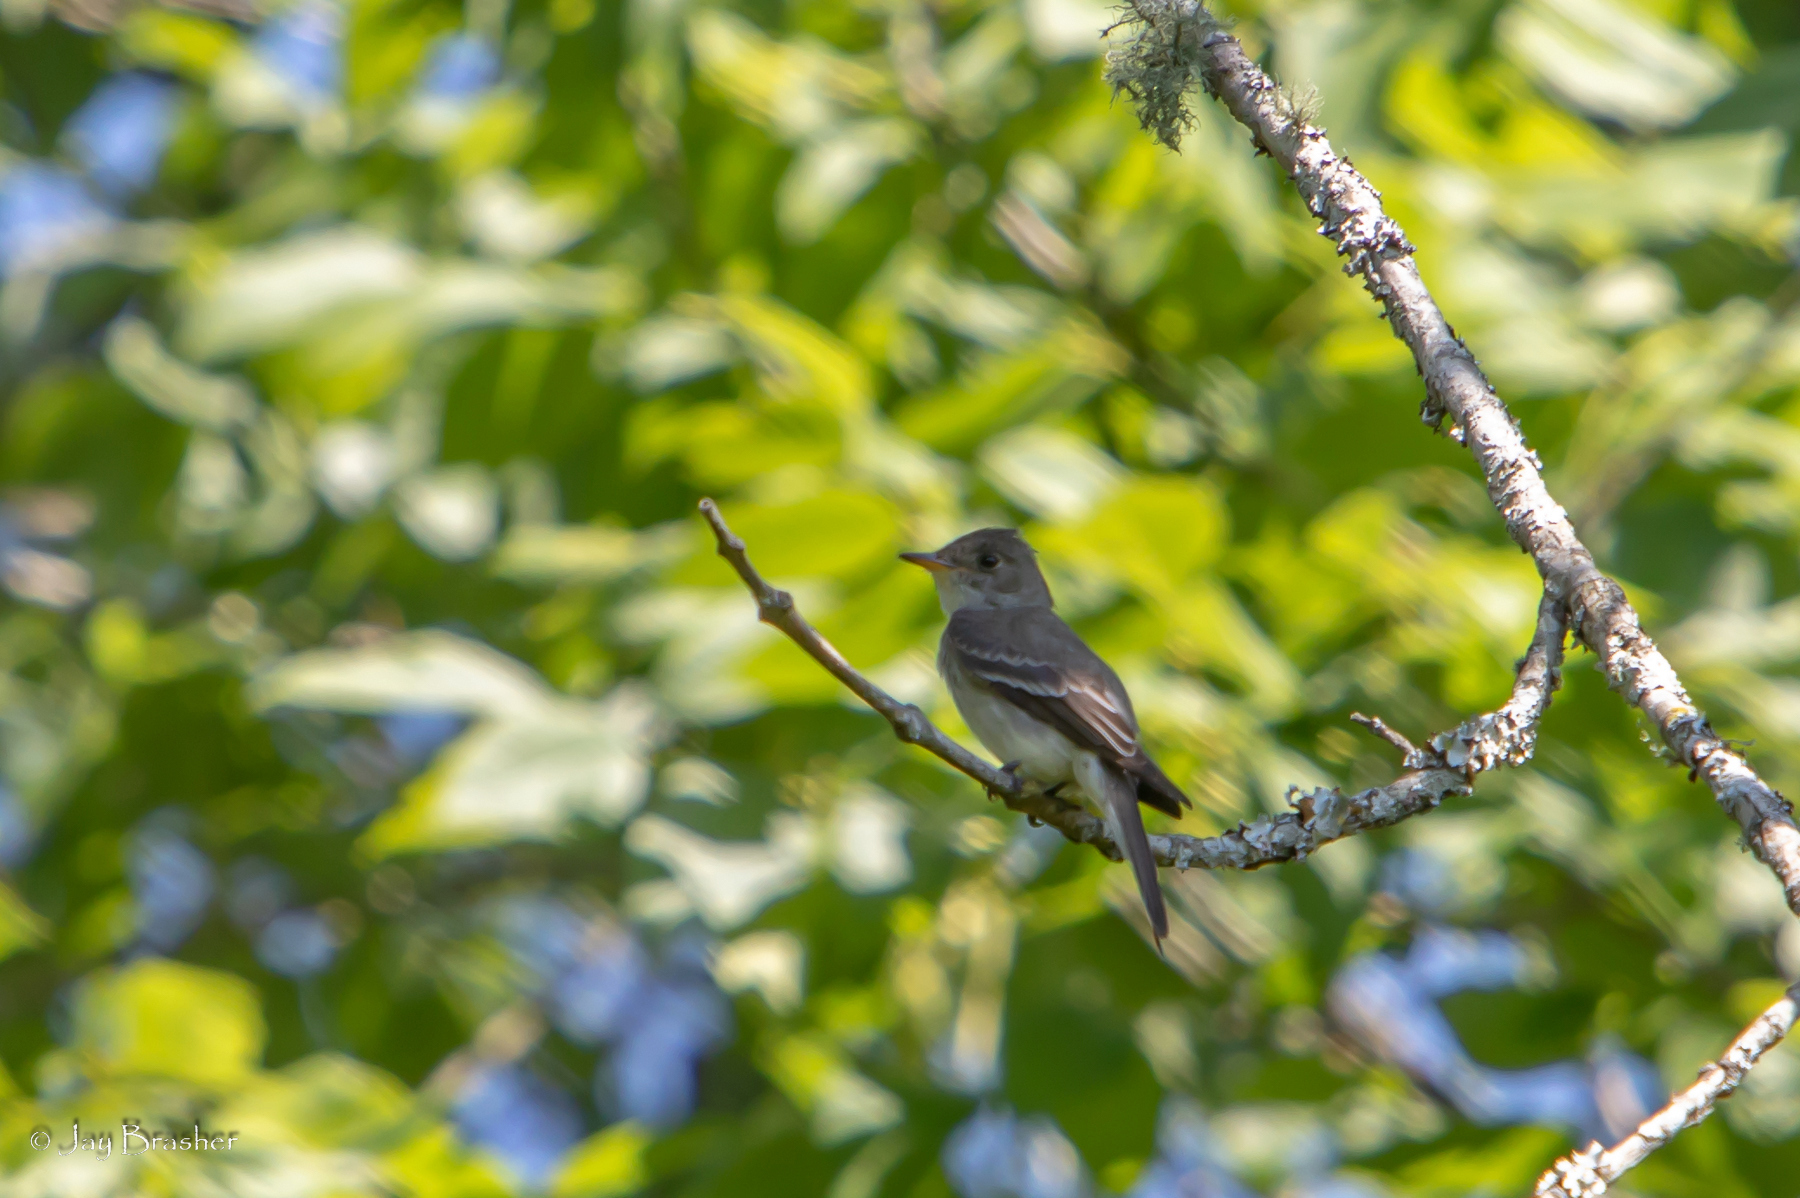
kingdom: Animalia
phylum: Chordata
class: Aves
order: Passeriformes
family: Tyrannidae
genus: Contopus
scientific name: Contopus virens
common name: Eastern wood-pewee
